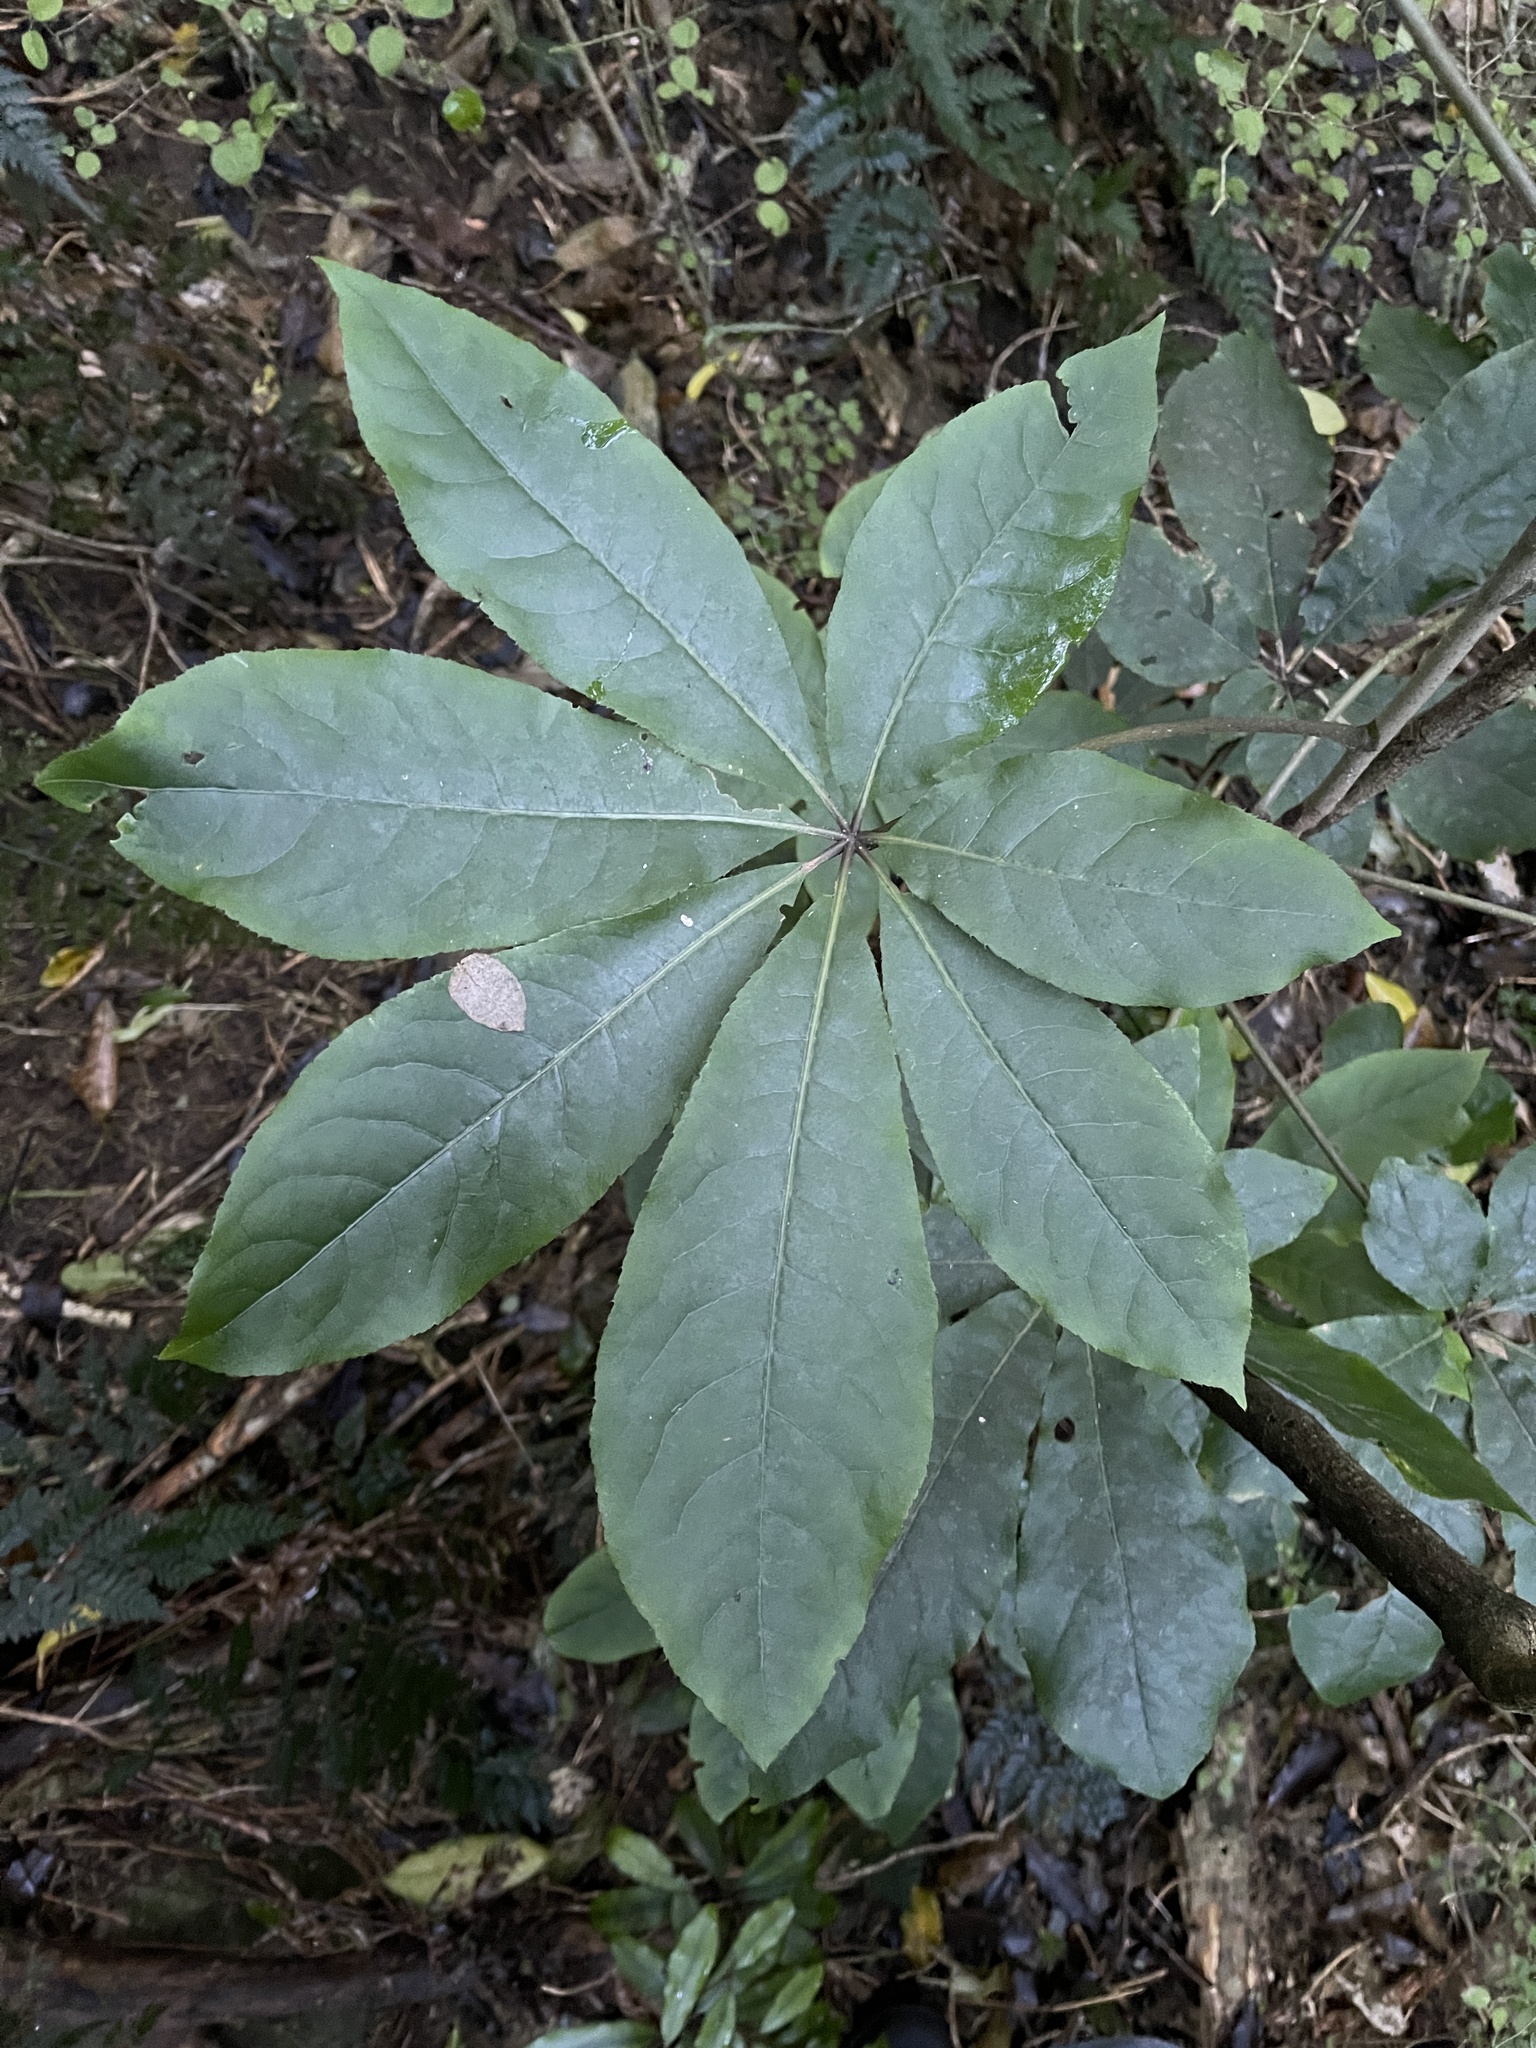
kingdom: Plantae
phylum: Tracheophyta
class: Magnoliopsida
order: Apiales
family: Araliaceae
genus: Schefflera
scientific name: Schefflera digitata
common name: Pate
